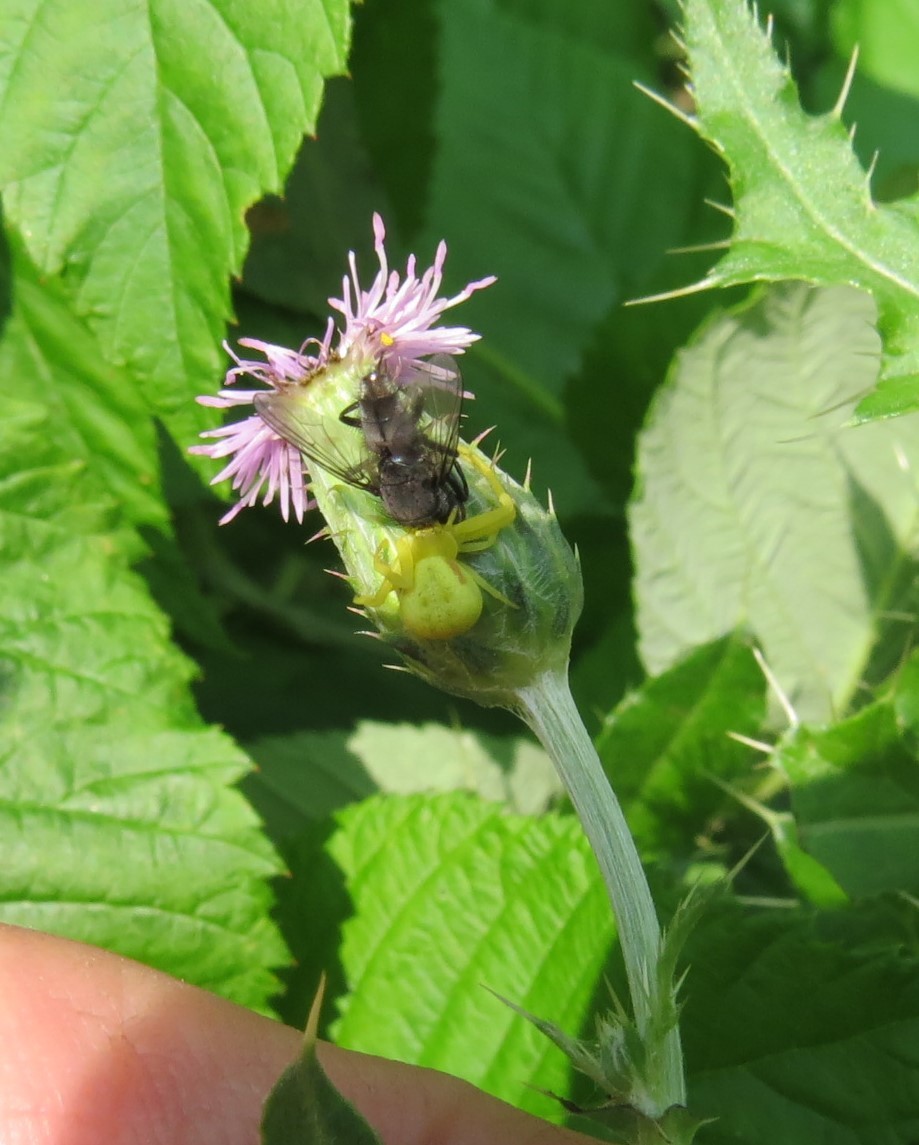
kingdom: Animalia
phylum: Arthropoda
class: Arachnida
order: Araneae
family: Thomisidae
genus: Misumena
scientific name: Misumena vatia
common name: Goldenrod crab spider
